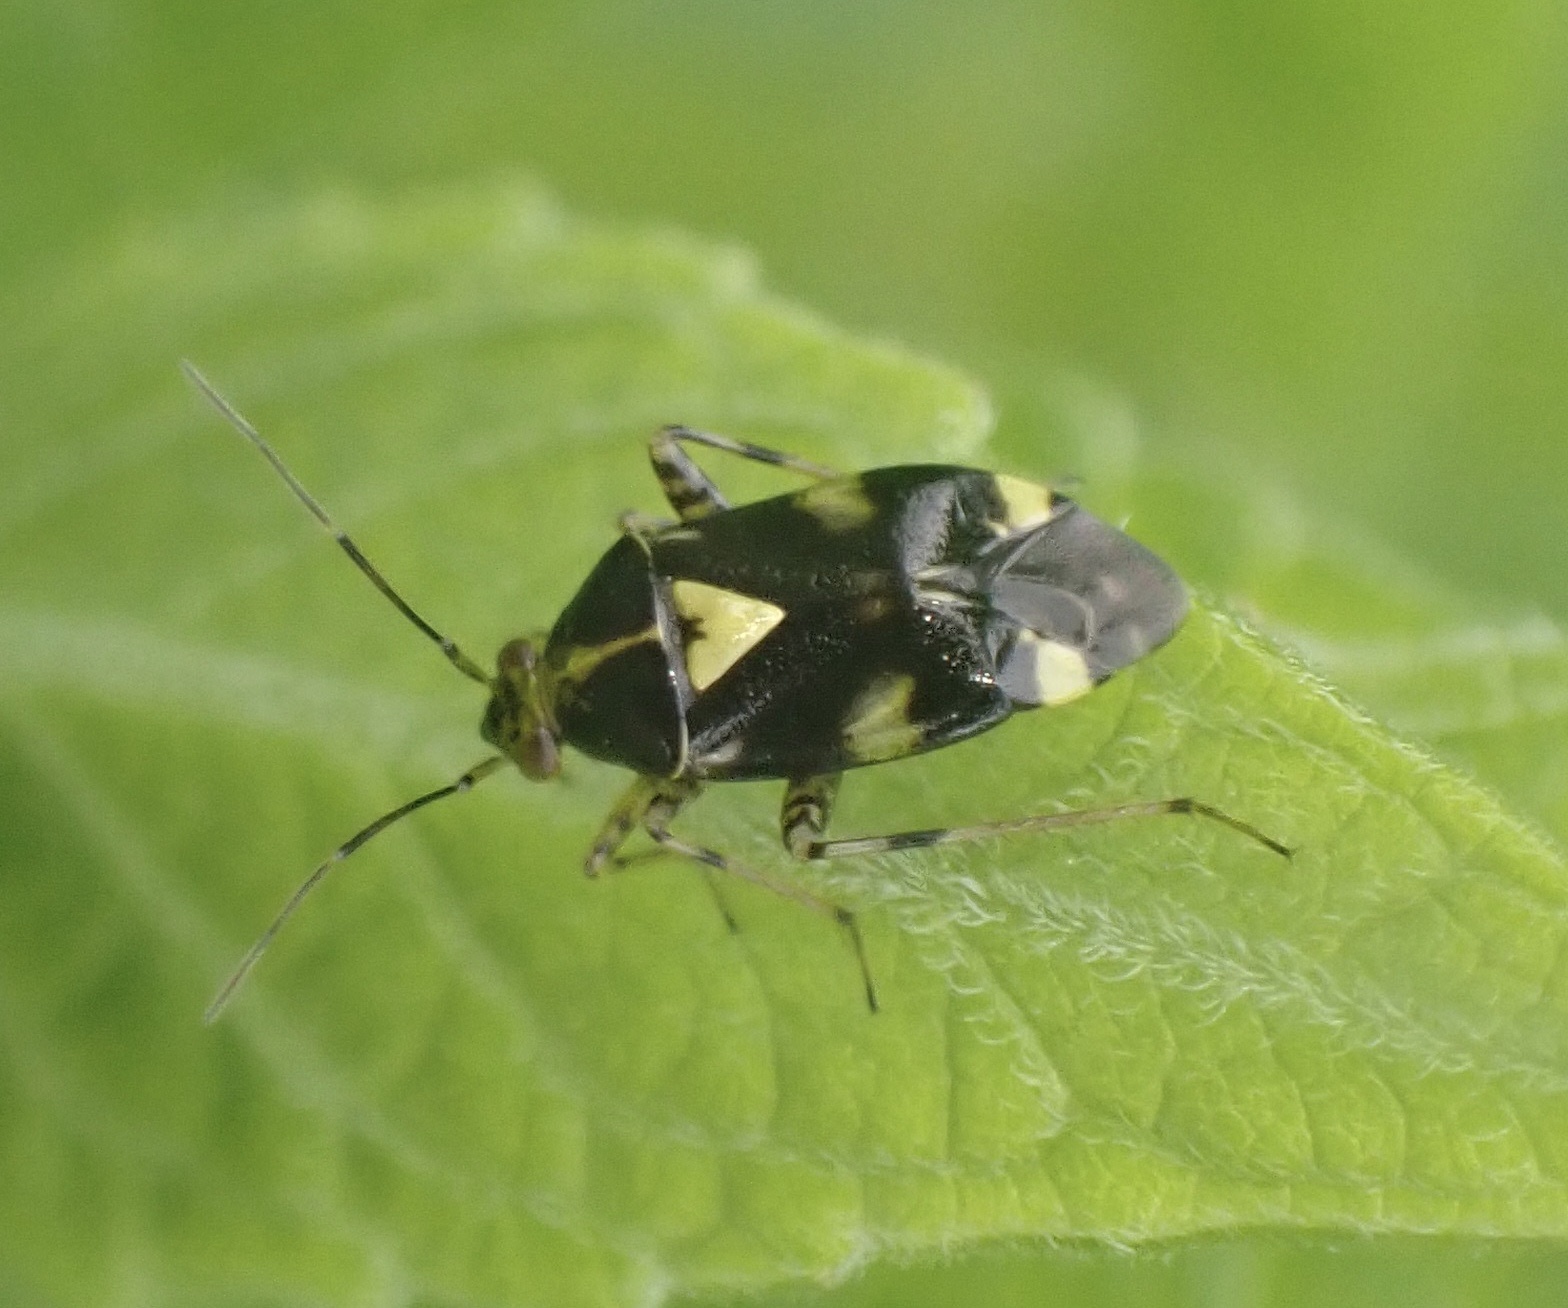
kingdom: Animalia
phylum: Arthropoda
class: Insecta
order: Hemiptera
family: Miridae
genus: Liocoris
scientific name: Liocoris tripustulatus
